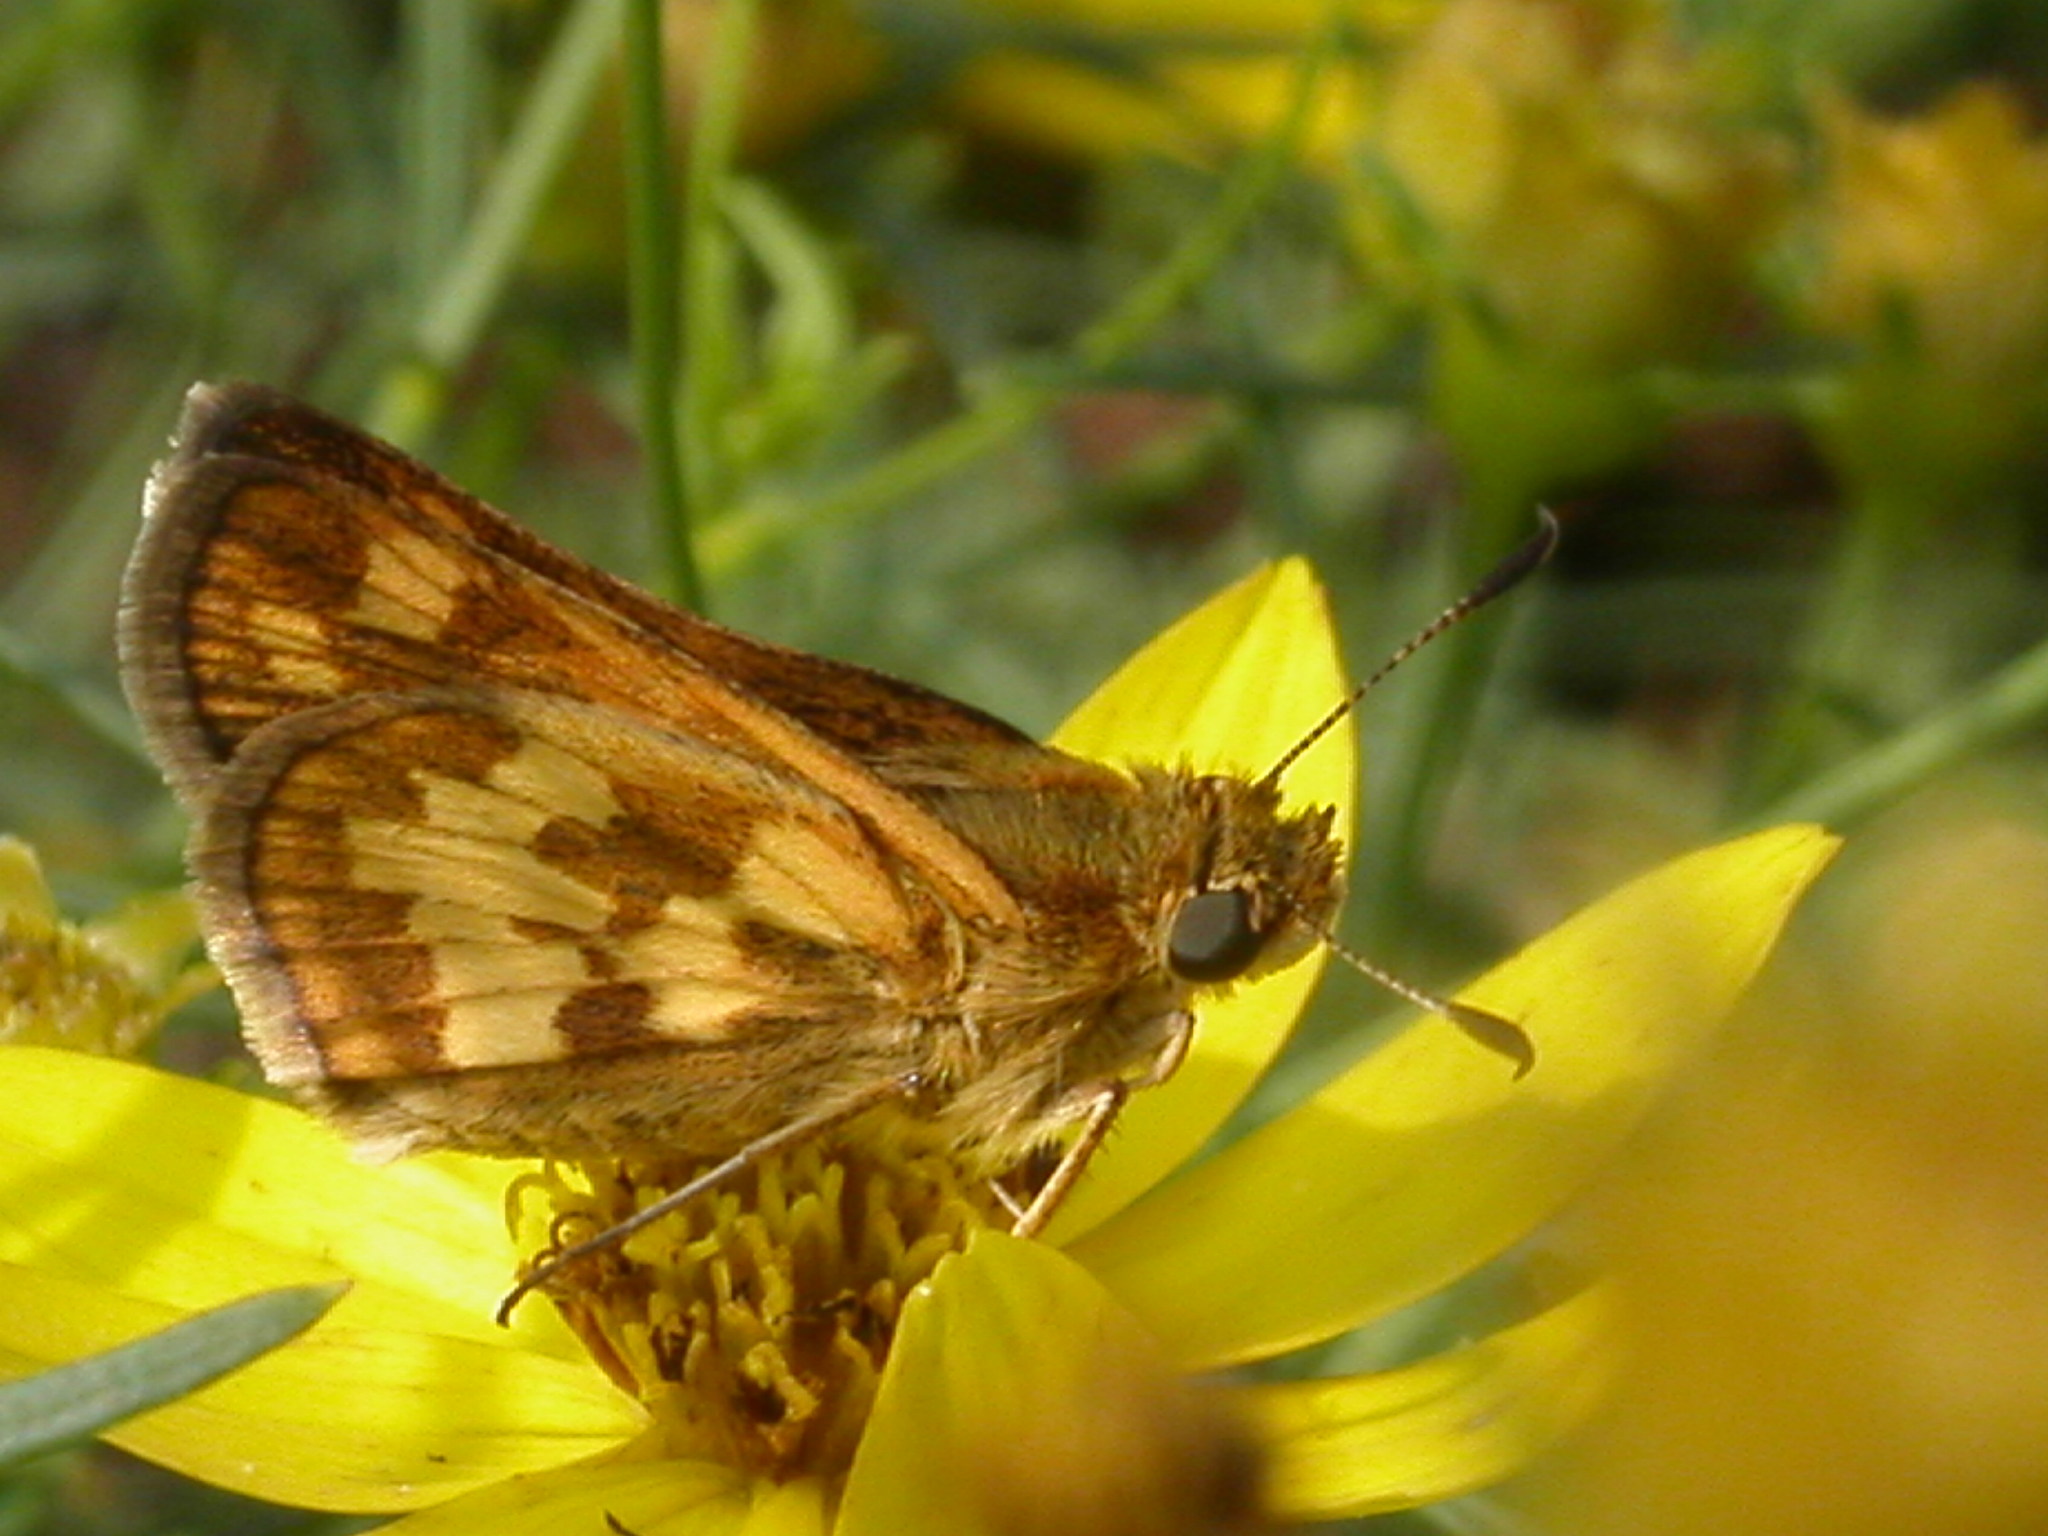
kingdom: Animalia
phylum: Arthropoda
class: Insecta
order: Lepidoptera
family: Hesperiidae
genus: Polites
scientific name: Polites coras
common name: Peck's skipper
